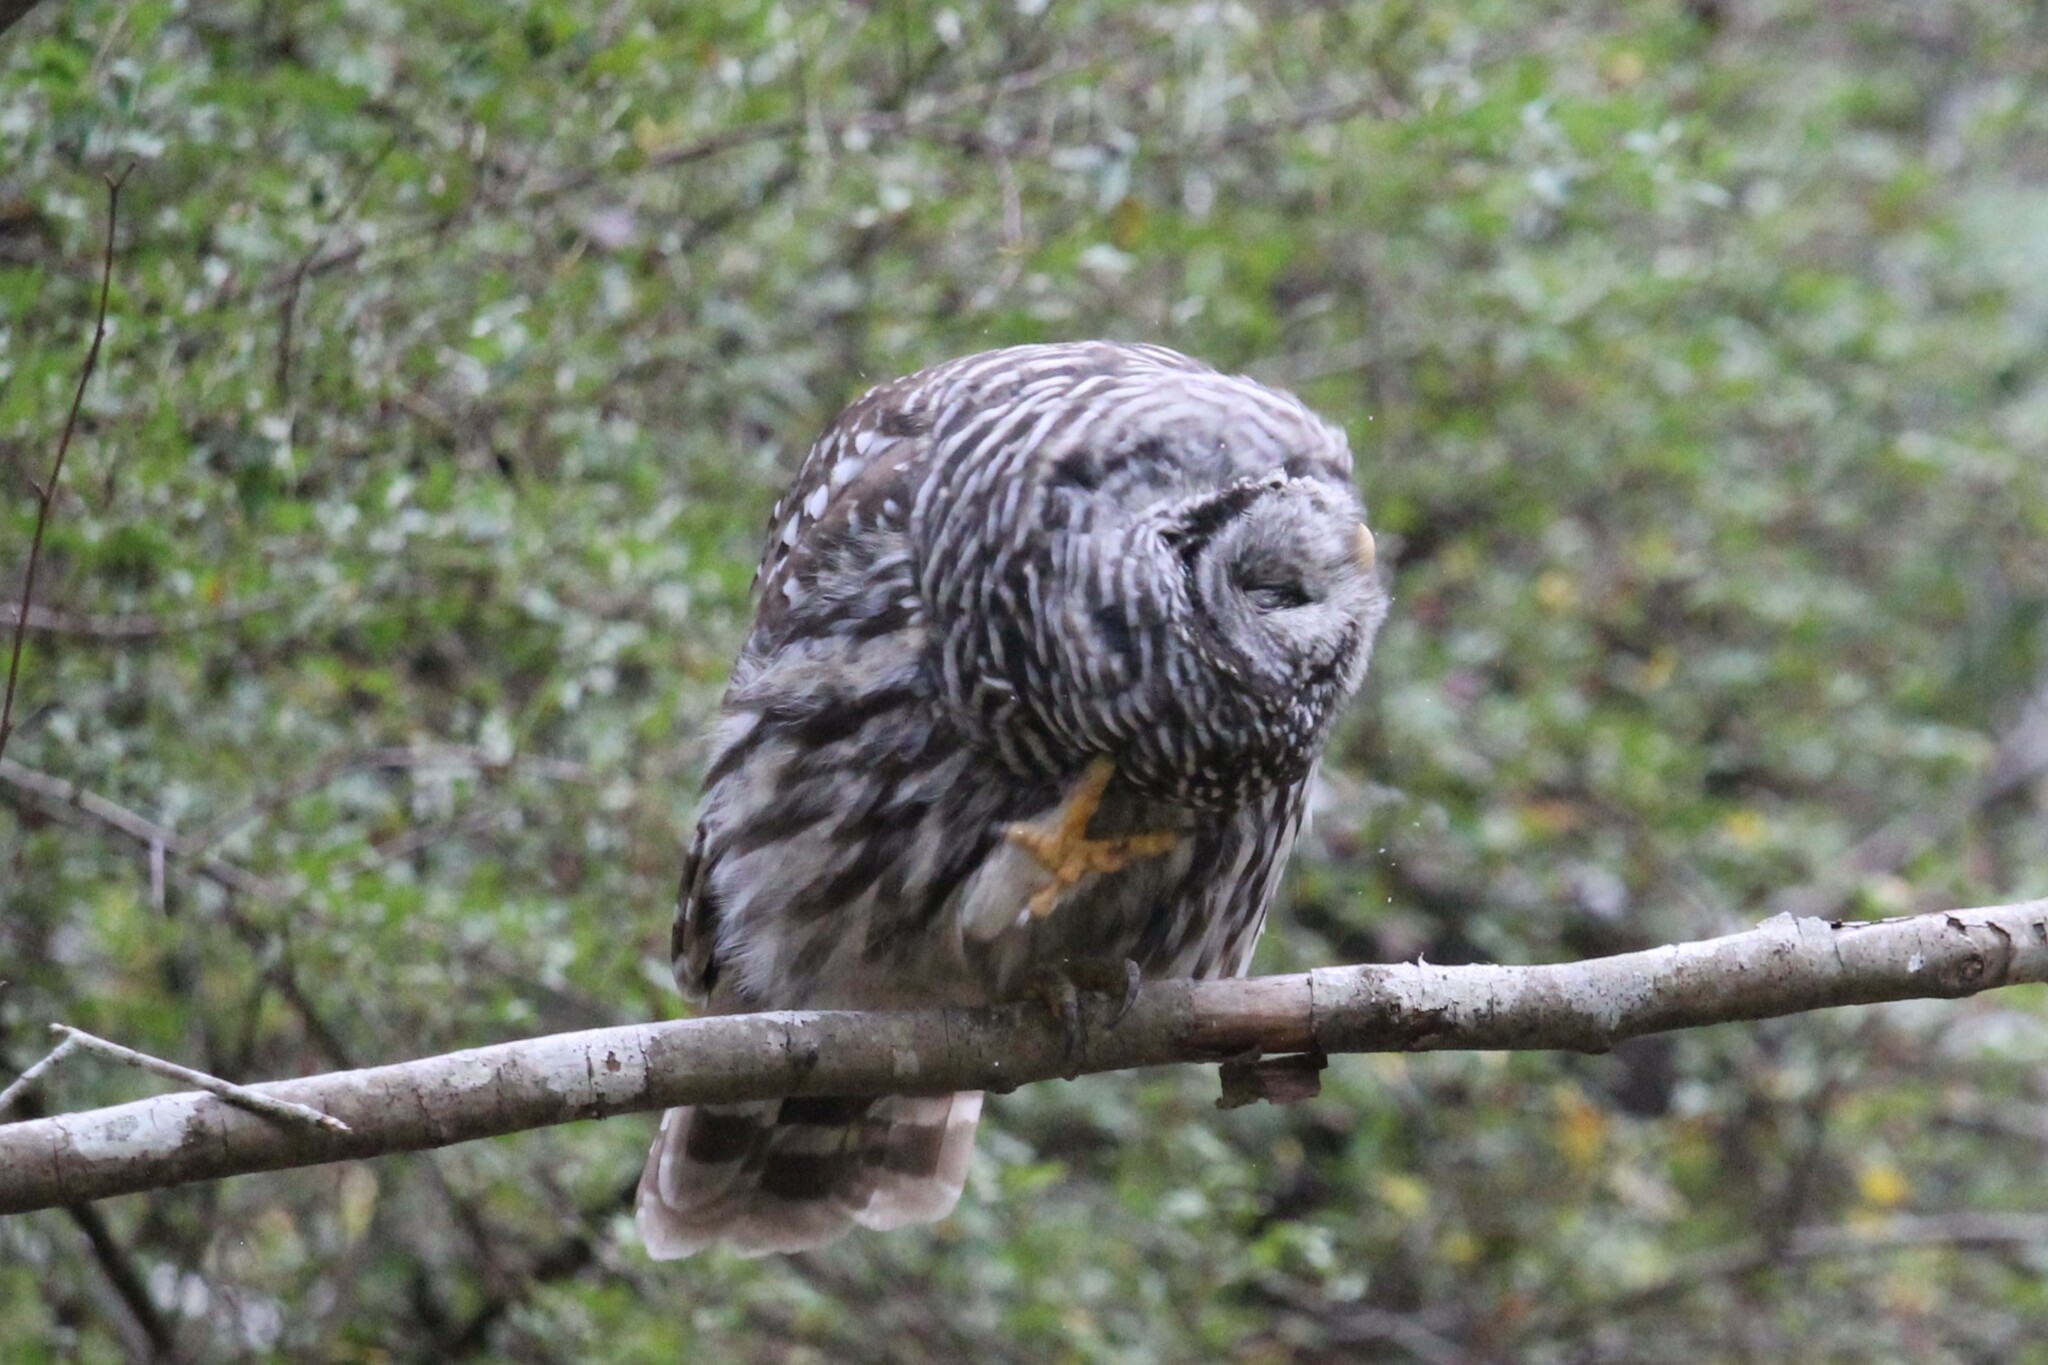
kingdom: Animalia
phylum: Chordata
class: Aves
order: Strigiformes
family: Strigidae
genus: Strix
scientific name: Strix varia
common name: Barred owl
